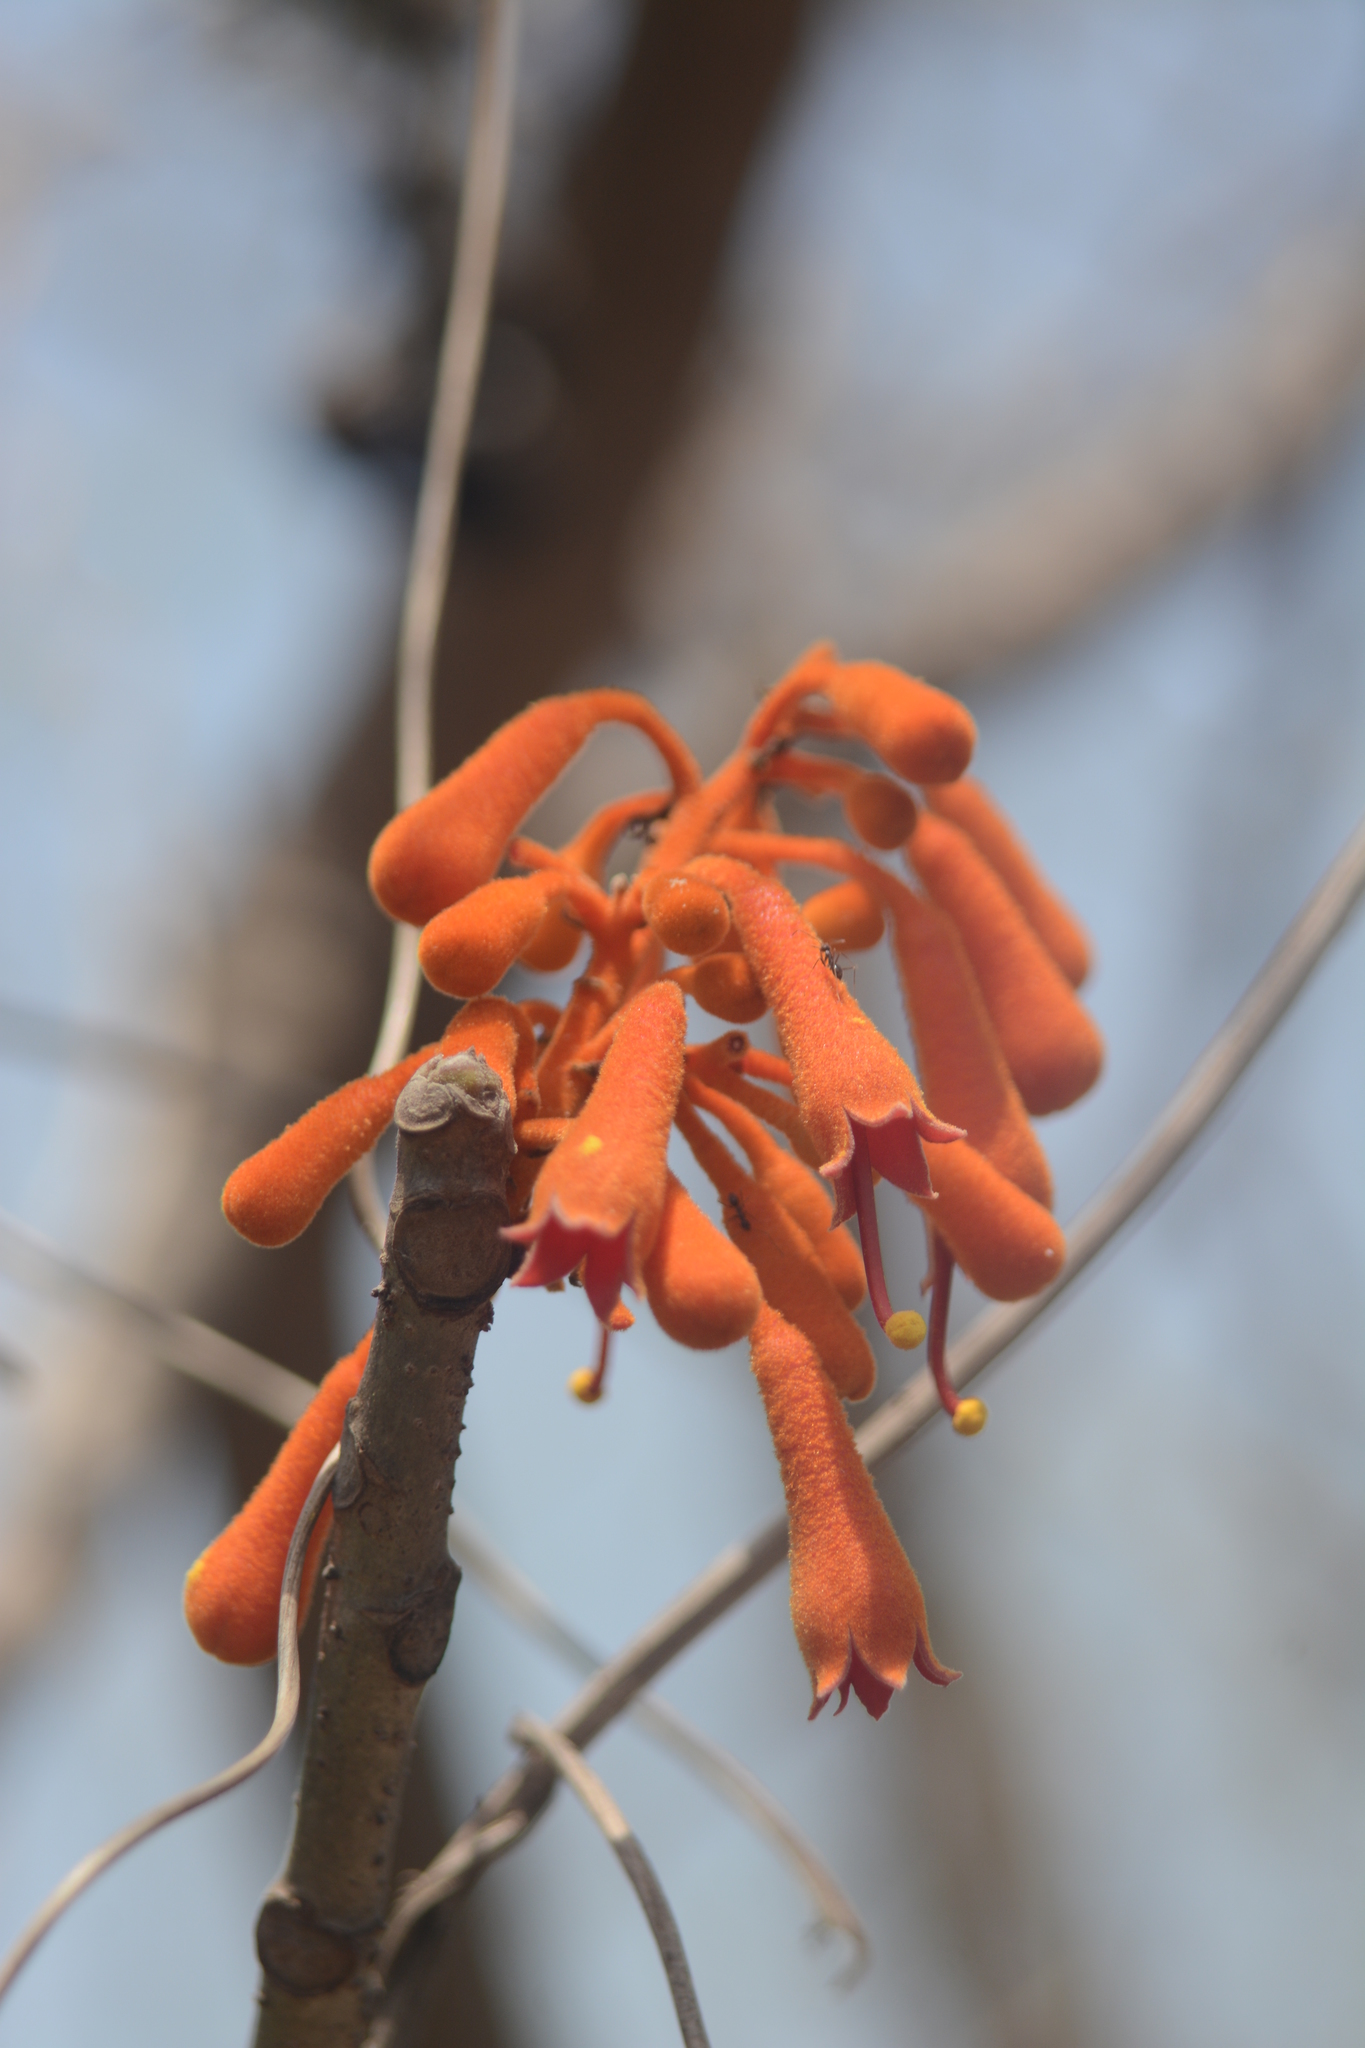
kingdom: Plantae
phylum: Tracheophyta
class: Magnoliopsida
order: Malvales
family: Malvaceae
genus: Firmiana
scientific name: Firmiana colorata
